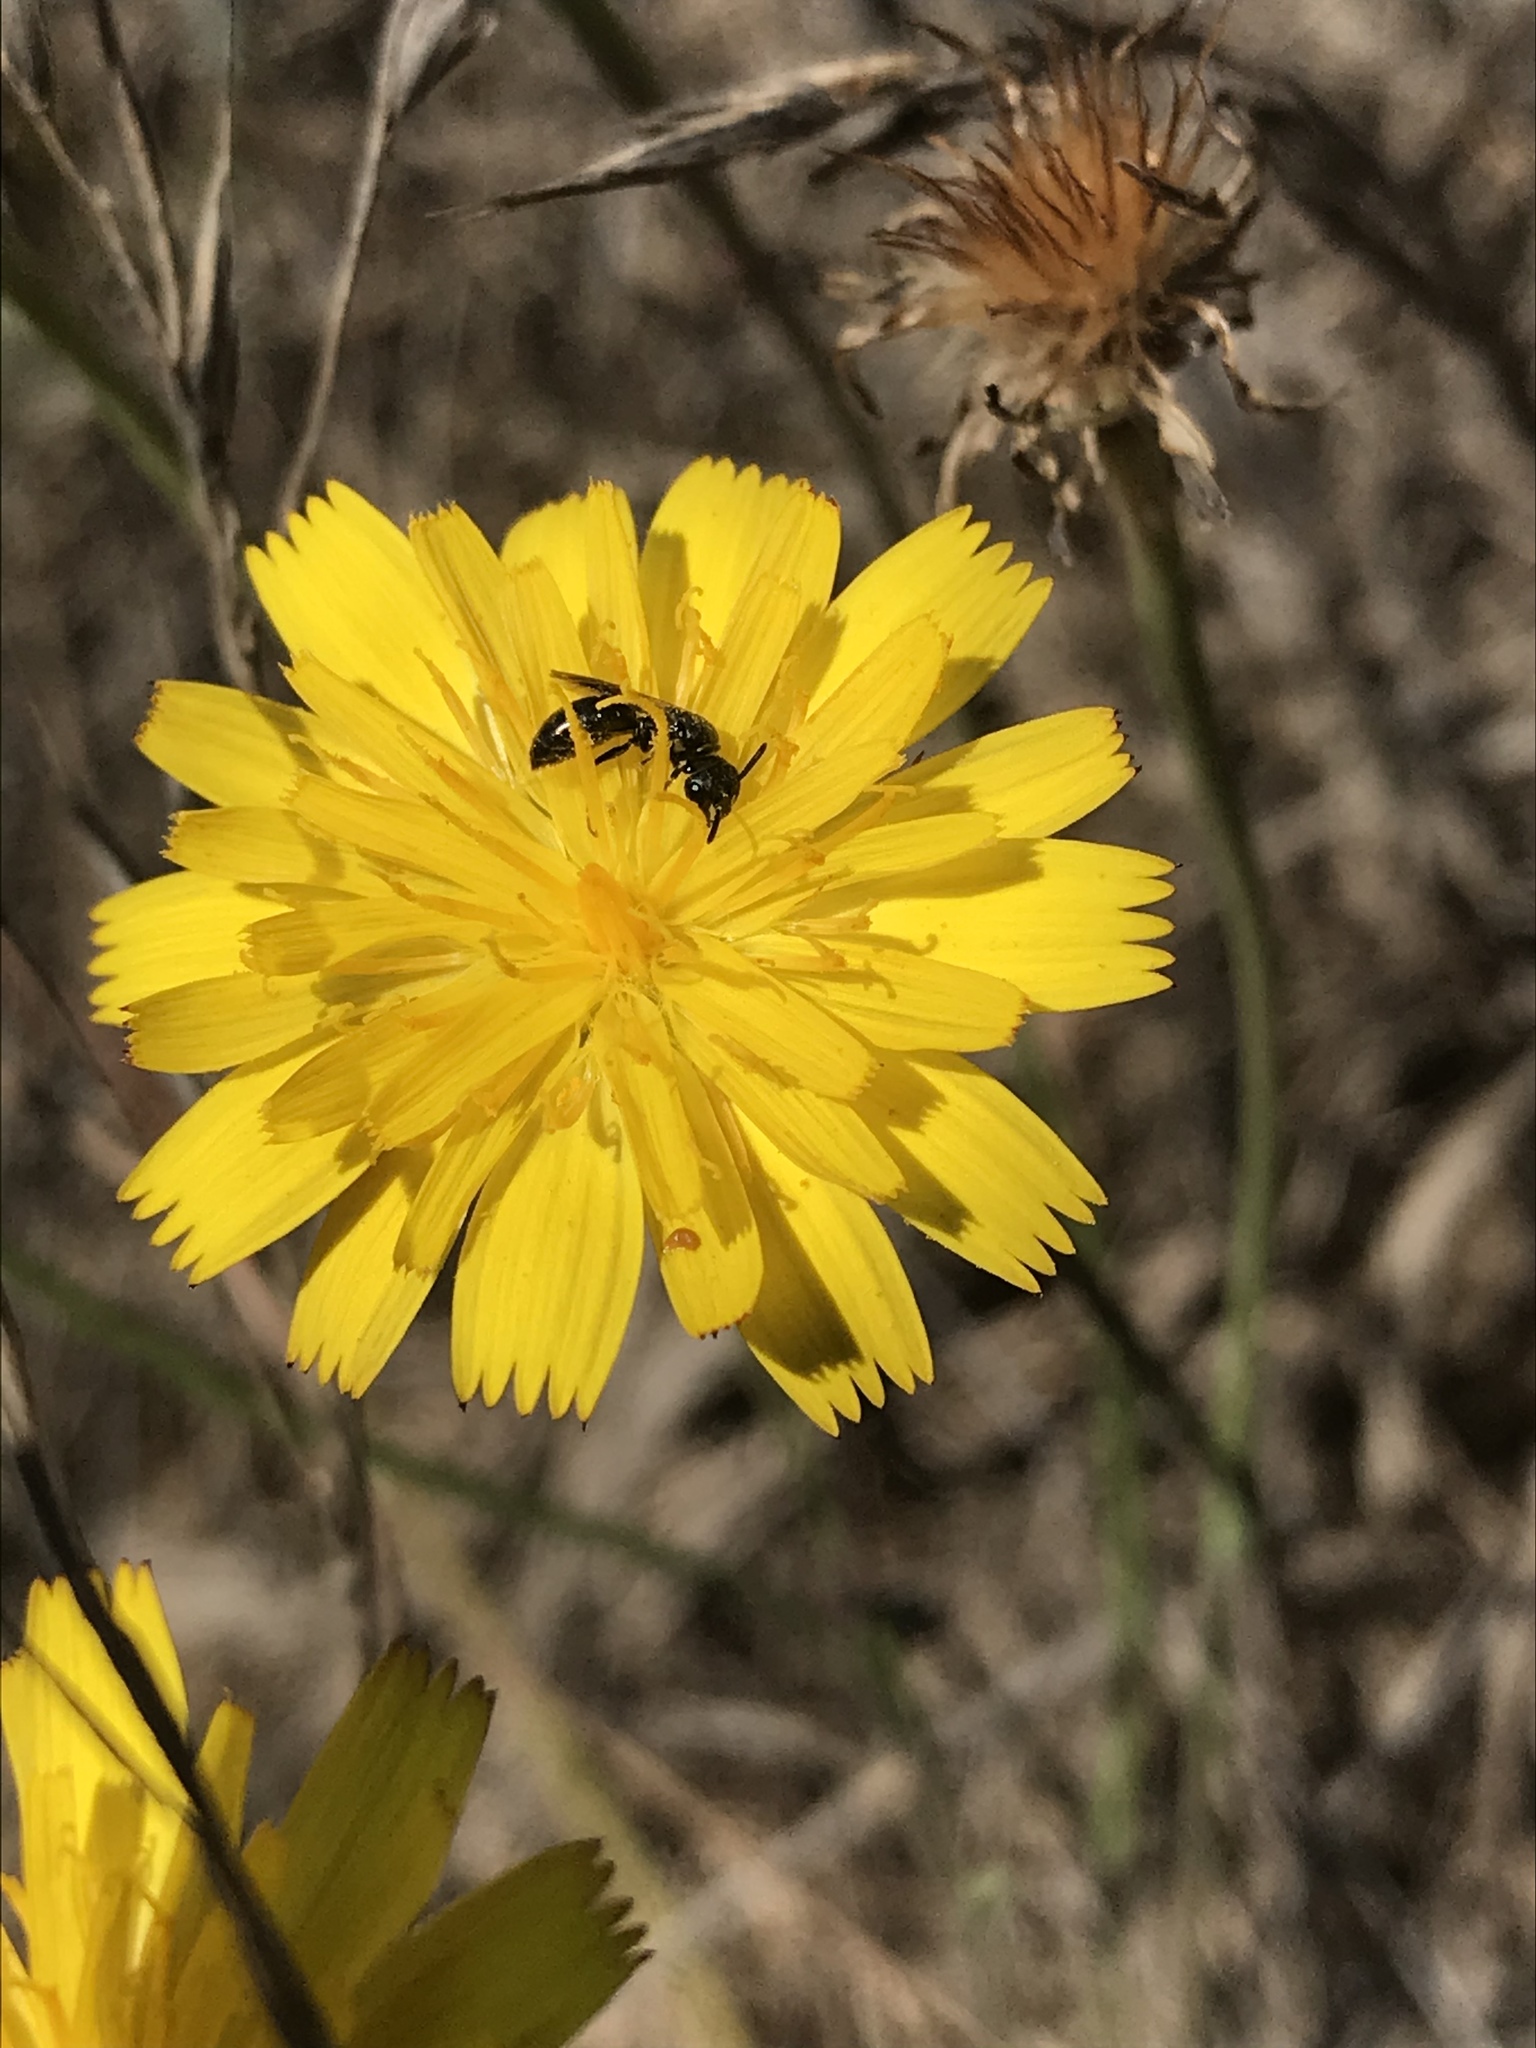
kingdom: Animalia
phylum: Arthropoda
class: Insecta
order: Hymenoptera
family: Colletidae
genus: Hylaeus
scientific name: Hylaeus
